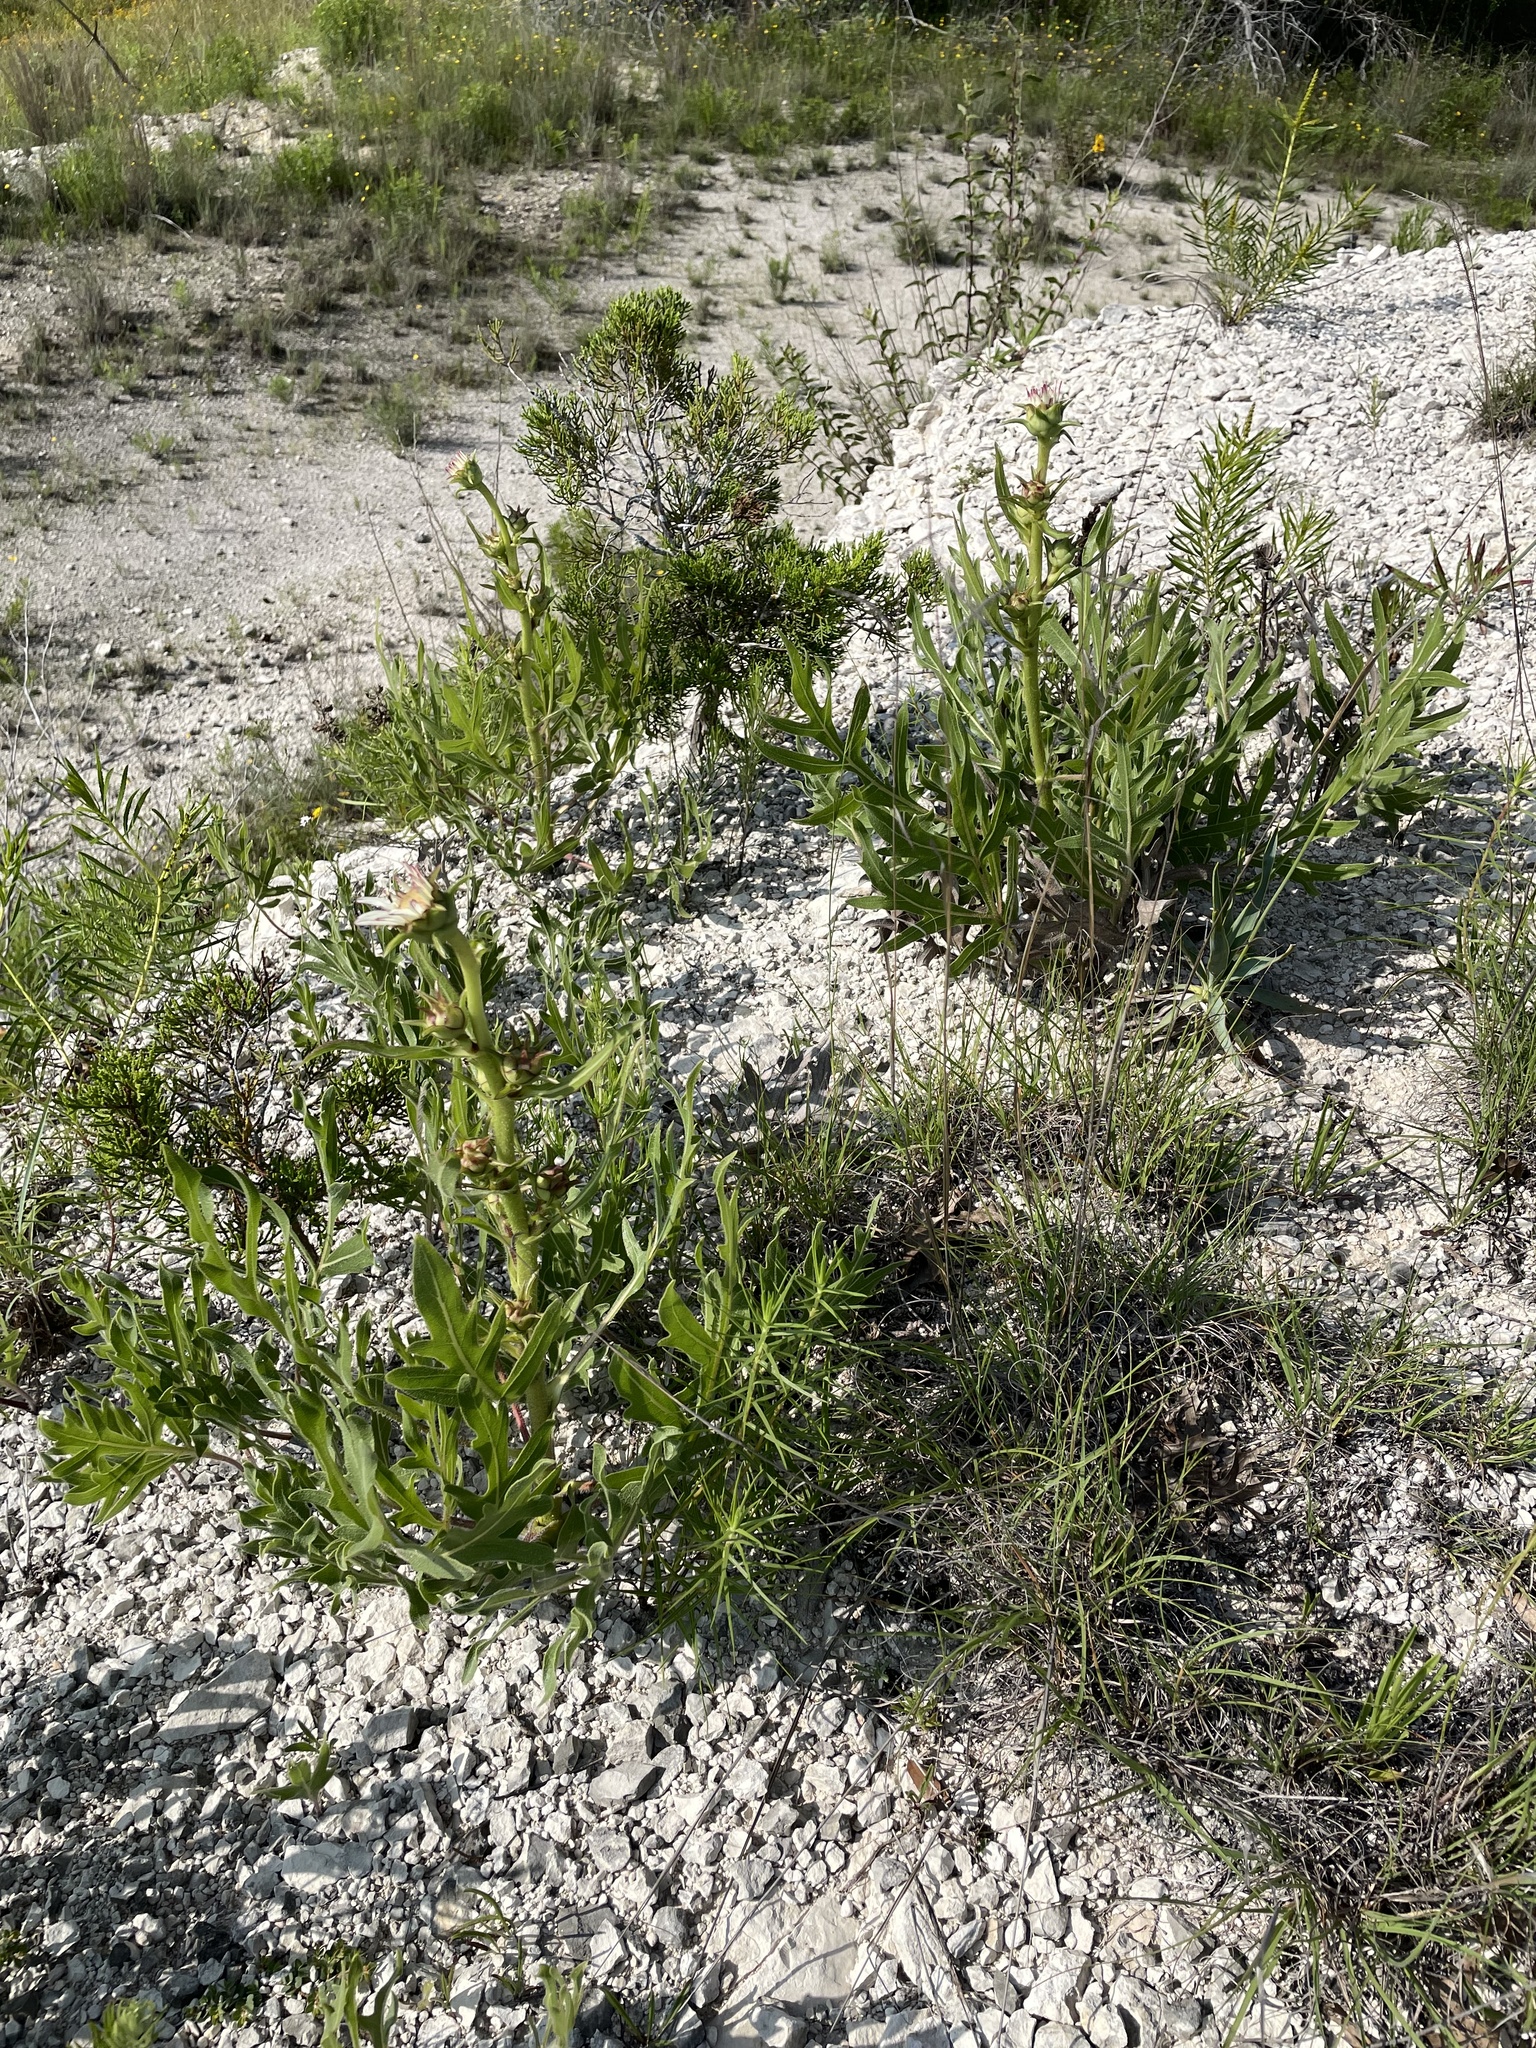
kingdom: Plantae
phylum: Tracheophyta
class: Magnoliopsida
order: Asterales
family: Asteraceae
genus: Silphium
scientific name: Silphium albiflorum
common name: White rosinweed
